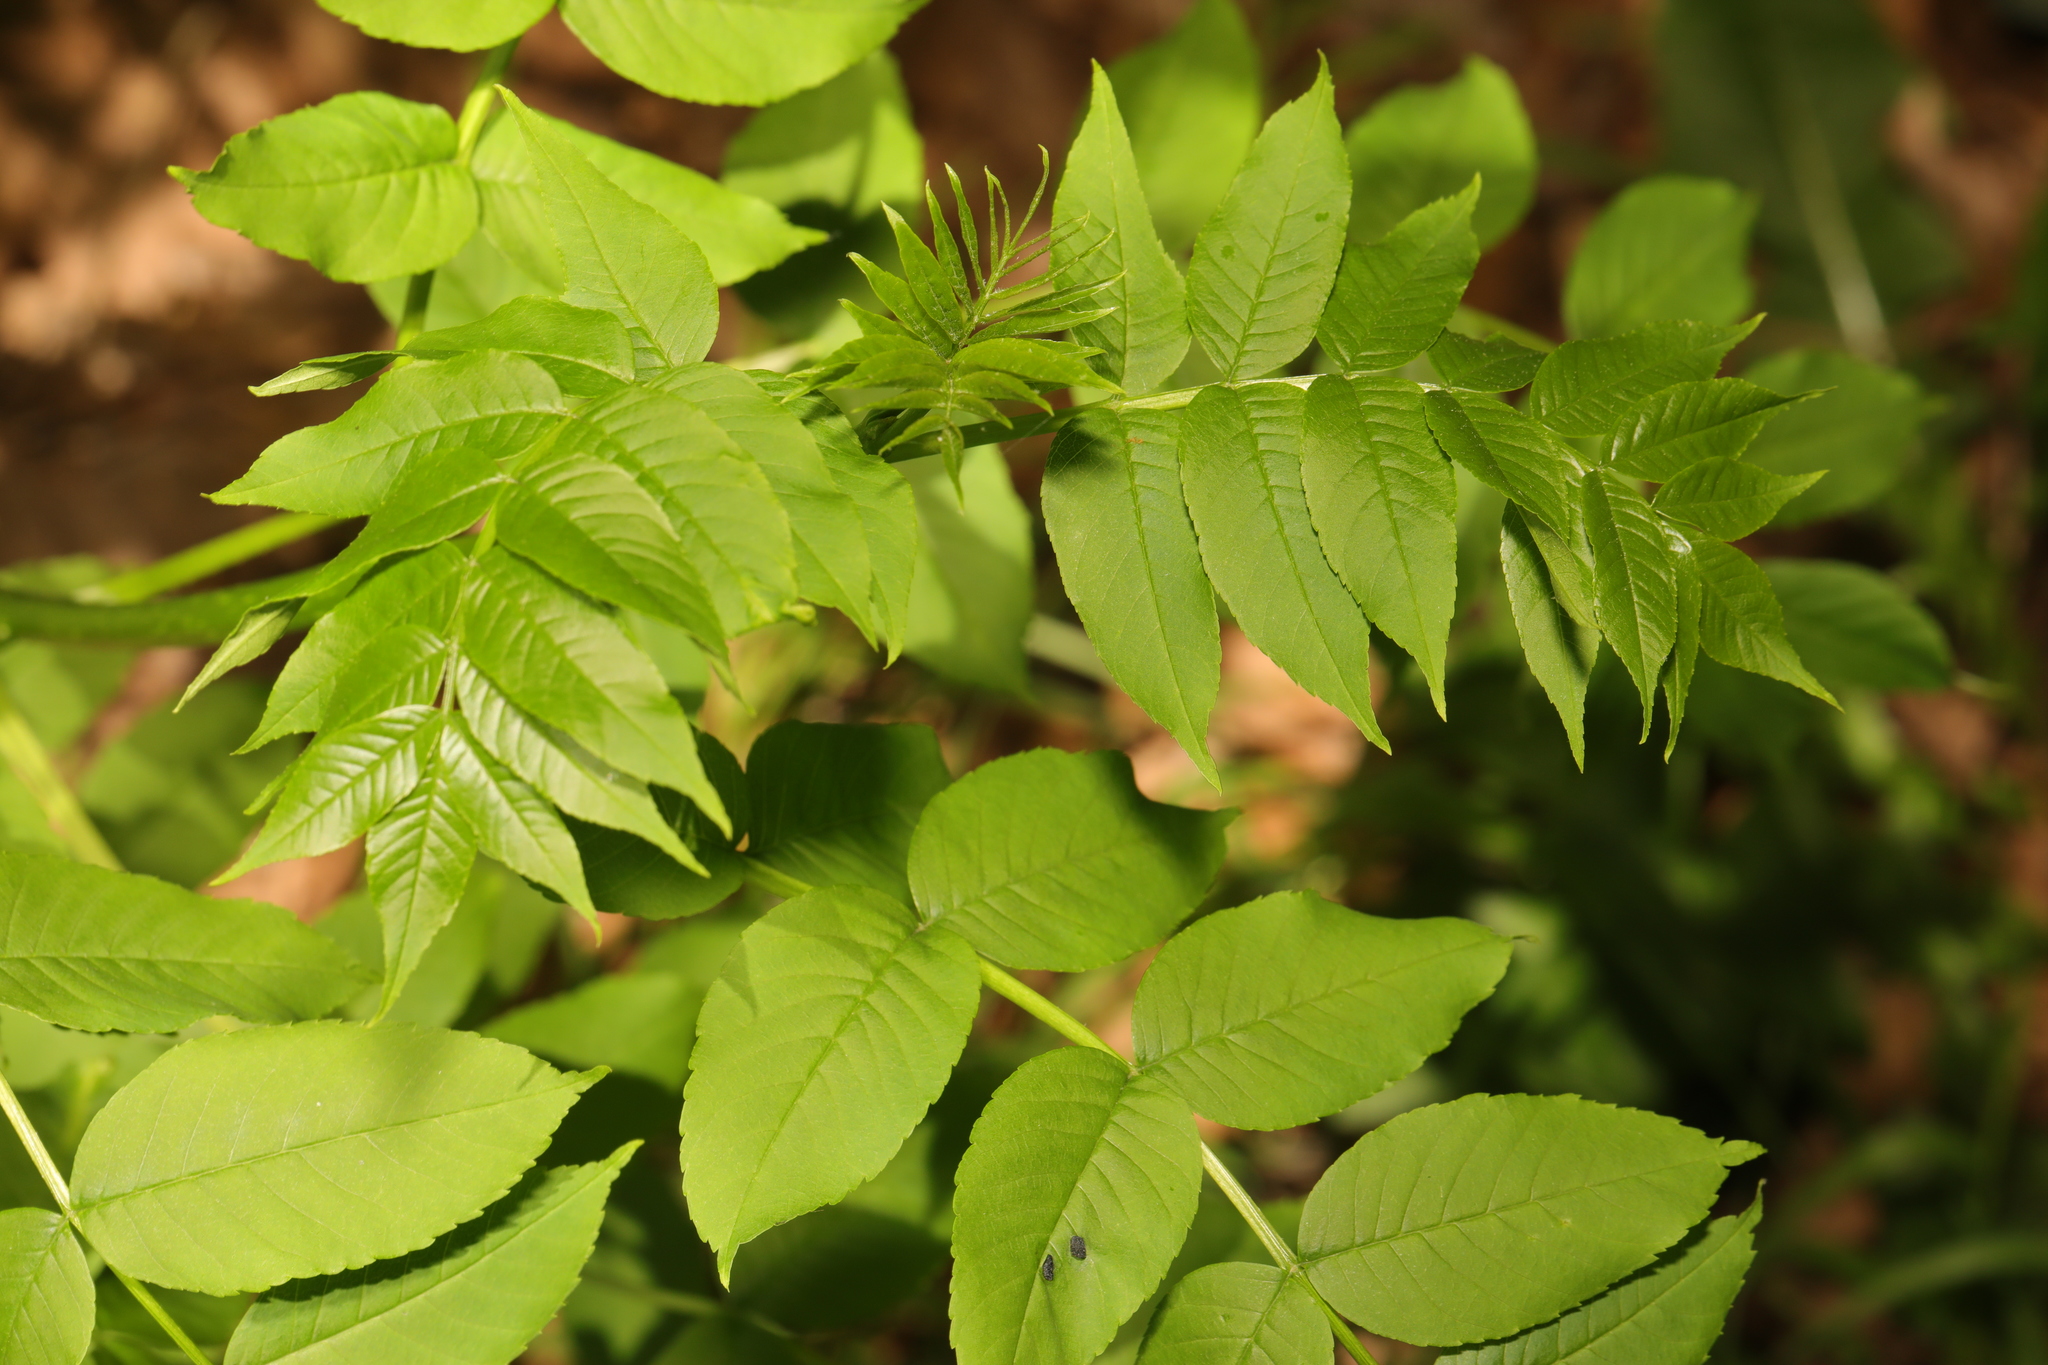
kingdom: Plantae
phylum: Tracheophyta
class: Magnoliopsida
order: Lamiales
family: Oleaceae
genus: Fraxinus
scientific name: Fraxinus excelsior
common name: European ash
